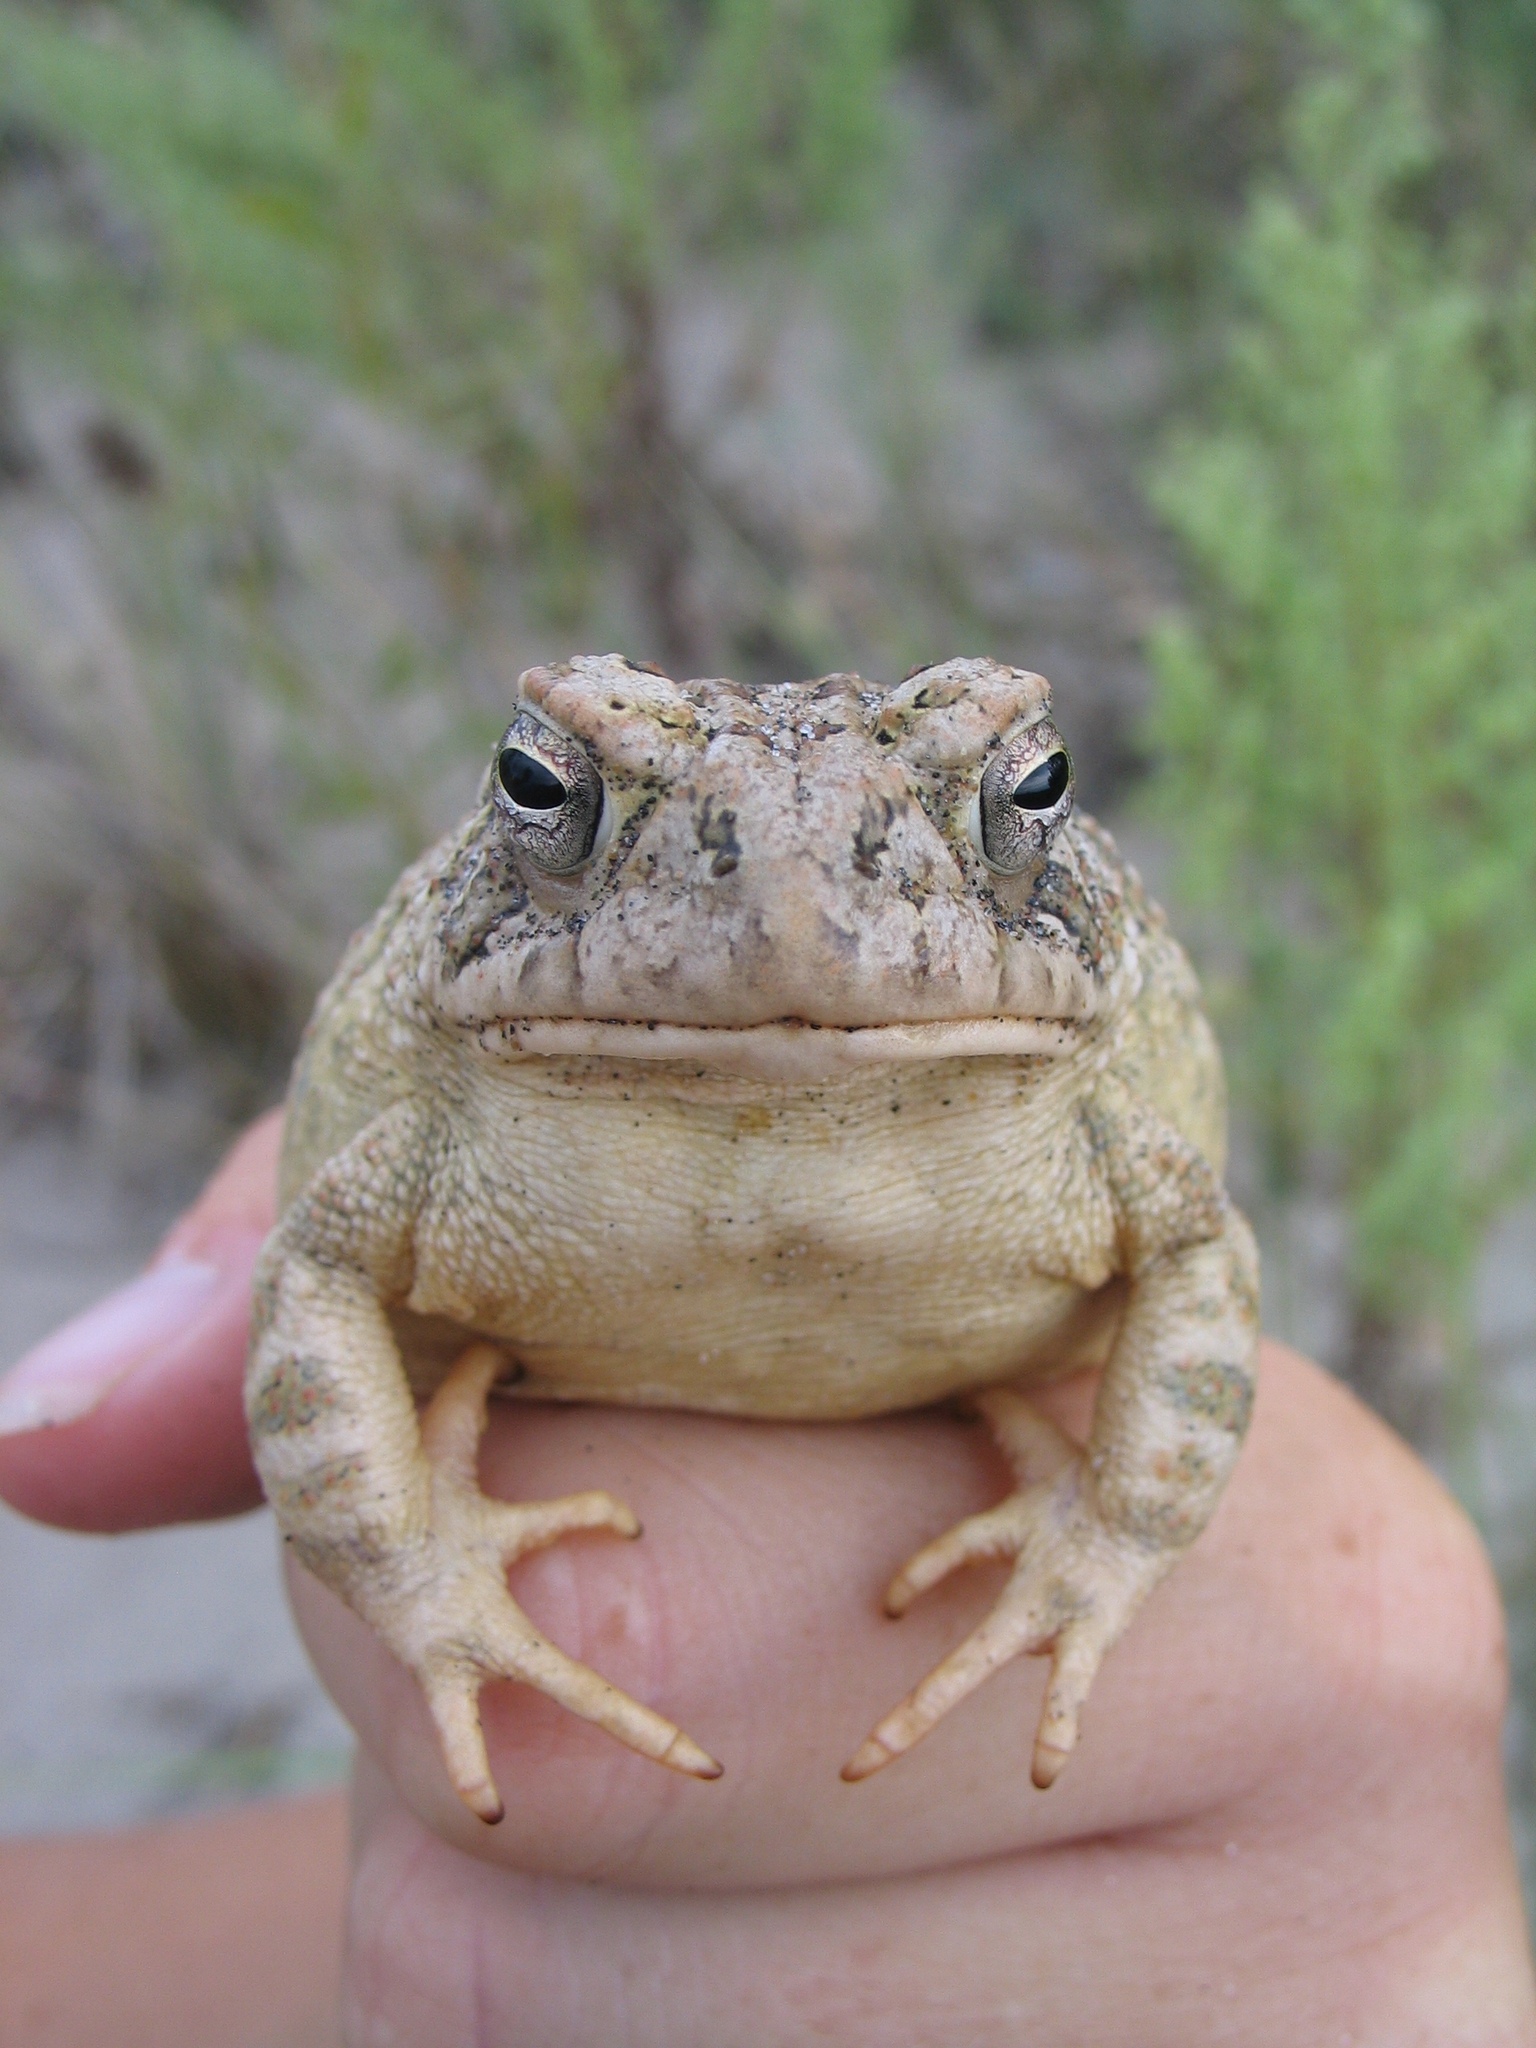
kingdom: Animalia
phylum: Chordata
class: Amphibia
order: Anura
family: Bufonidae
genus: Anaxyrus
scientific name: Anaxyrus fowleri
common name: Fowler's toad
